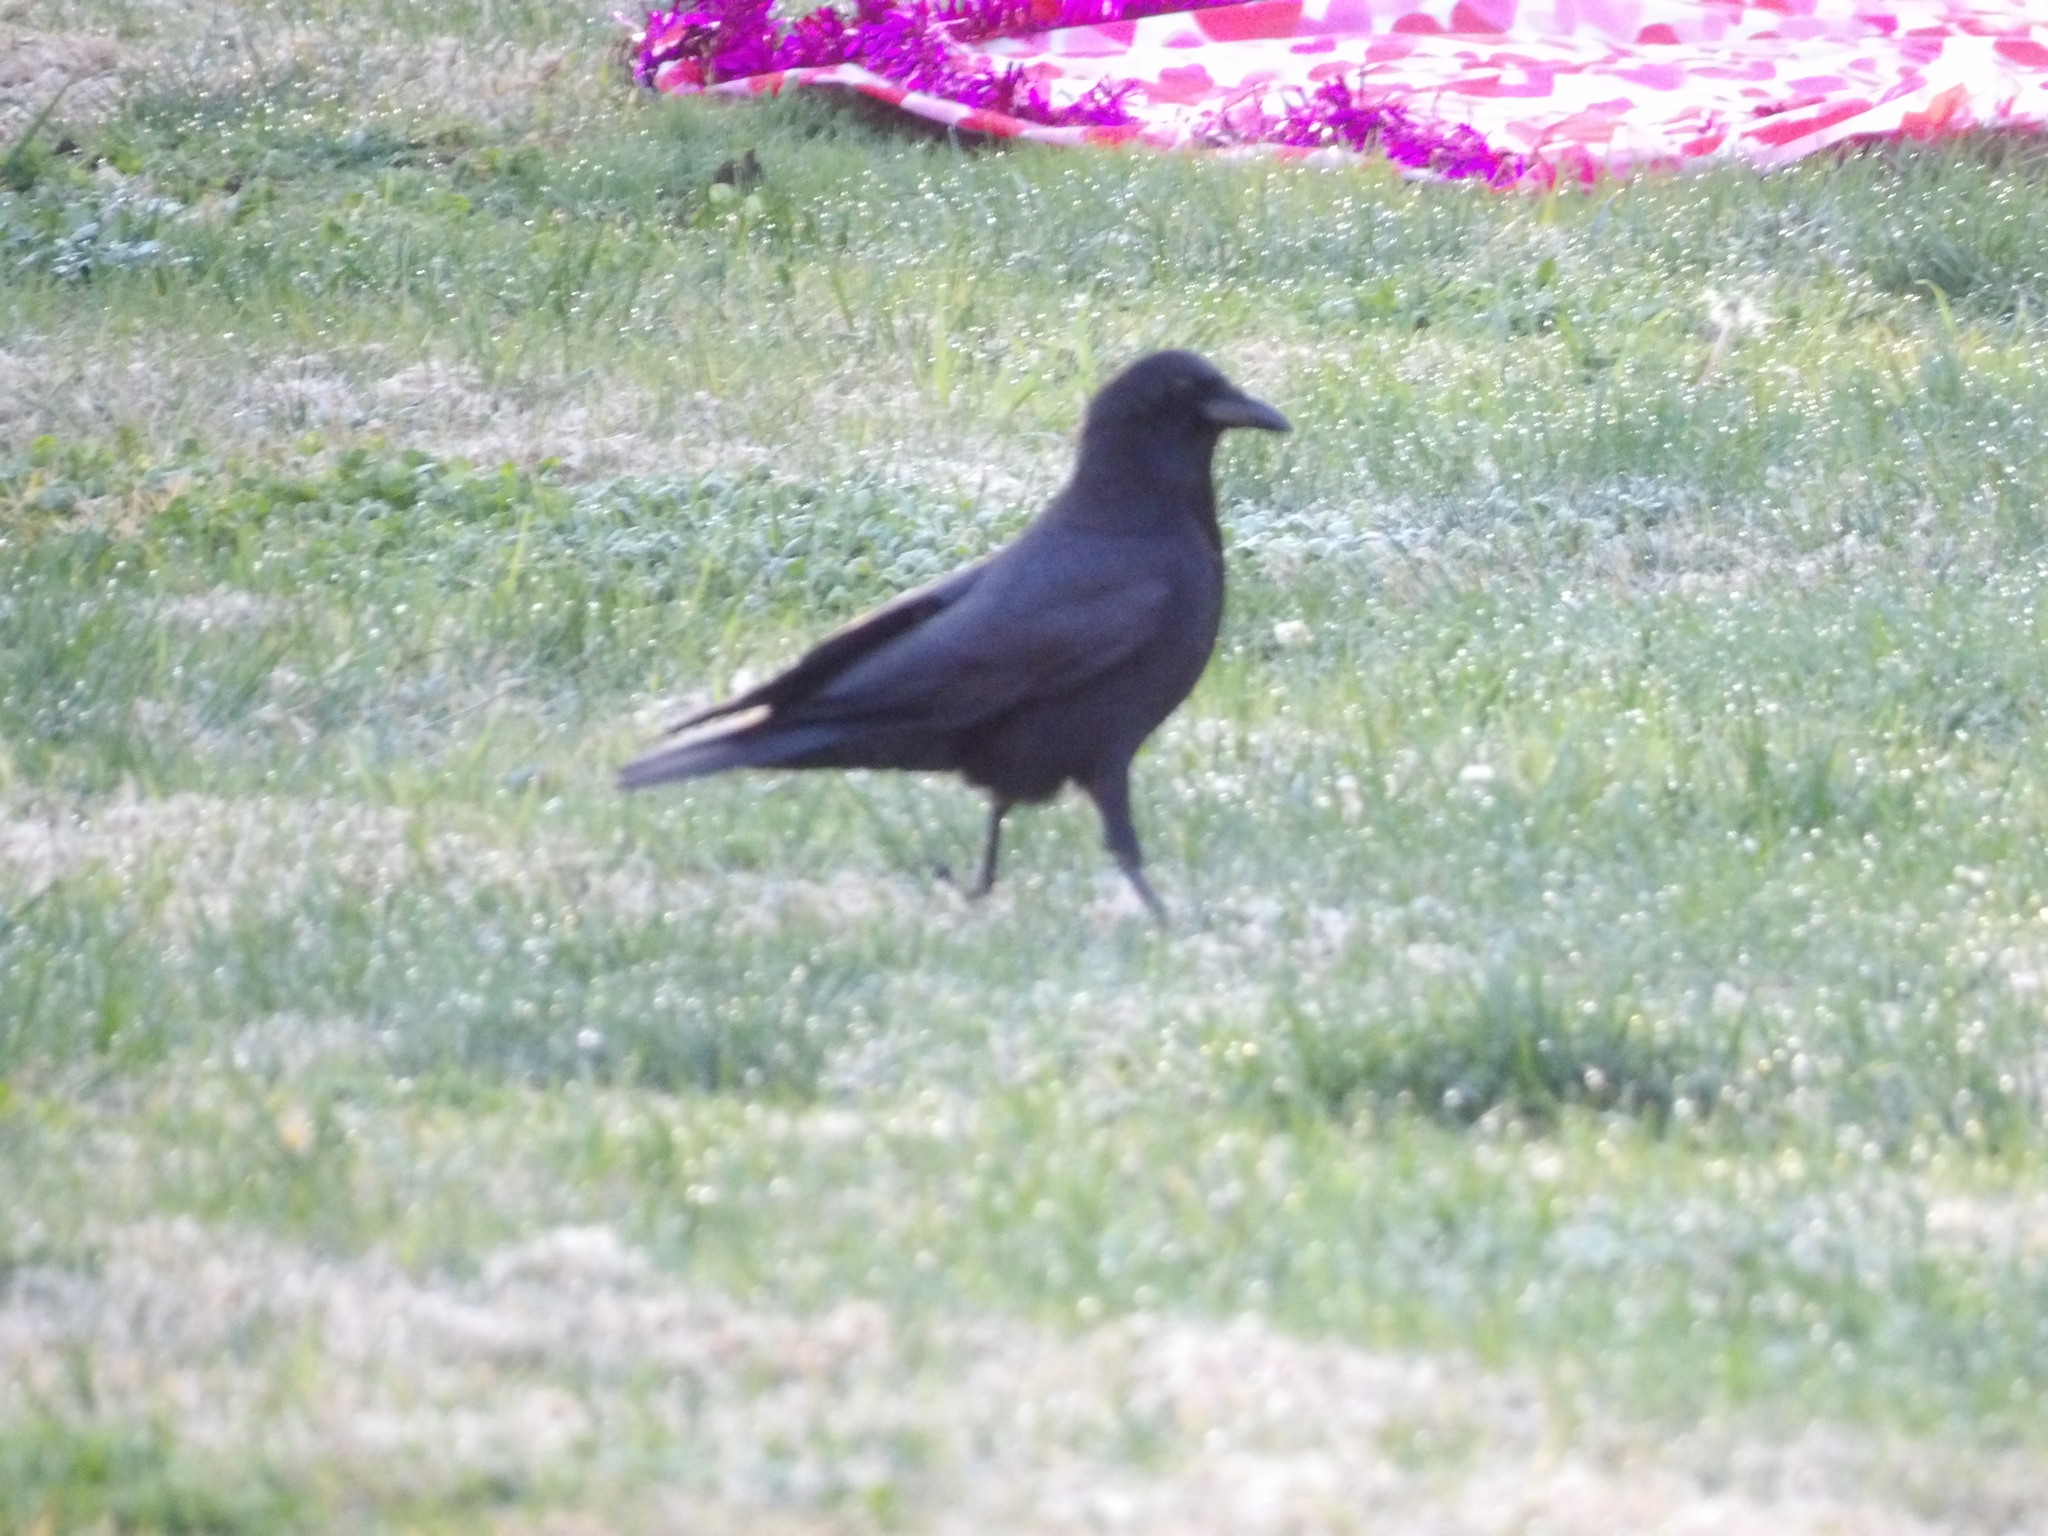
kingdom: Animalia
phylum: Chordata
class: Aves
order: Passeriformes
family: Corvidae
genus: Corvus
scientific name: Corvus brachyrhynchos
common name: American crow
